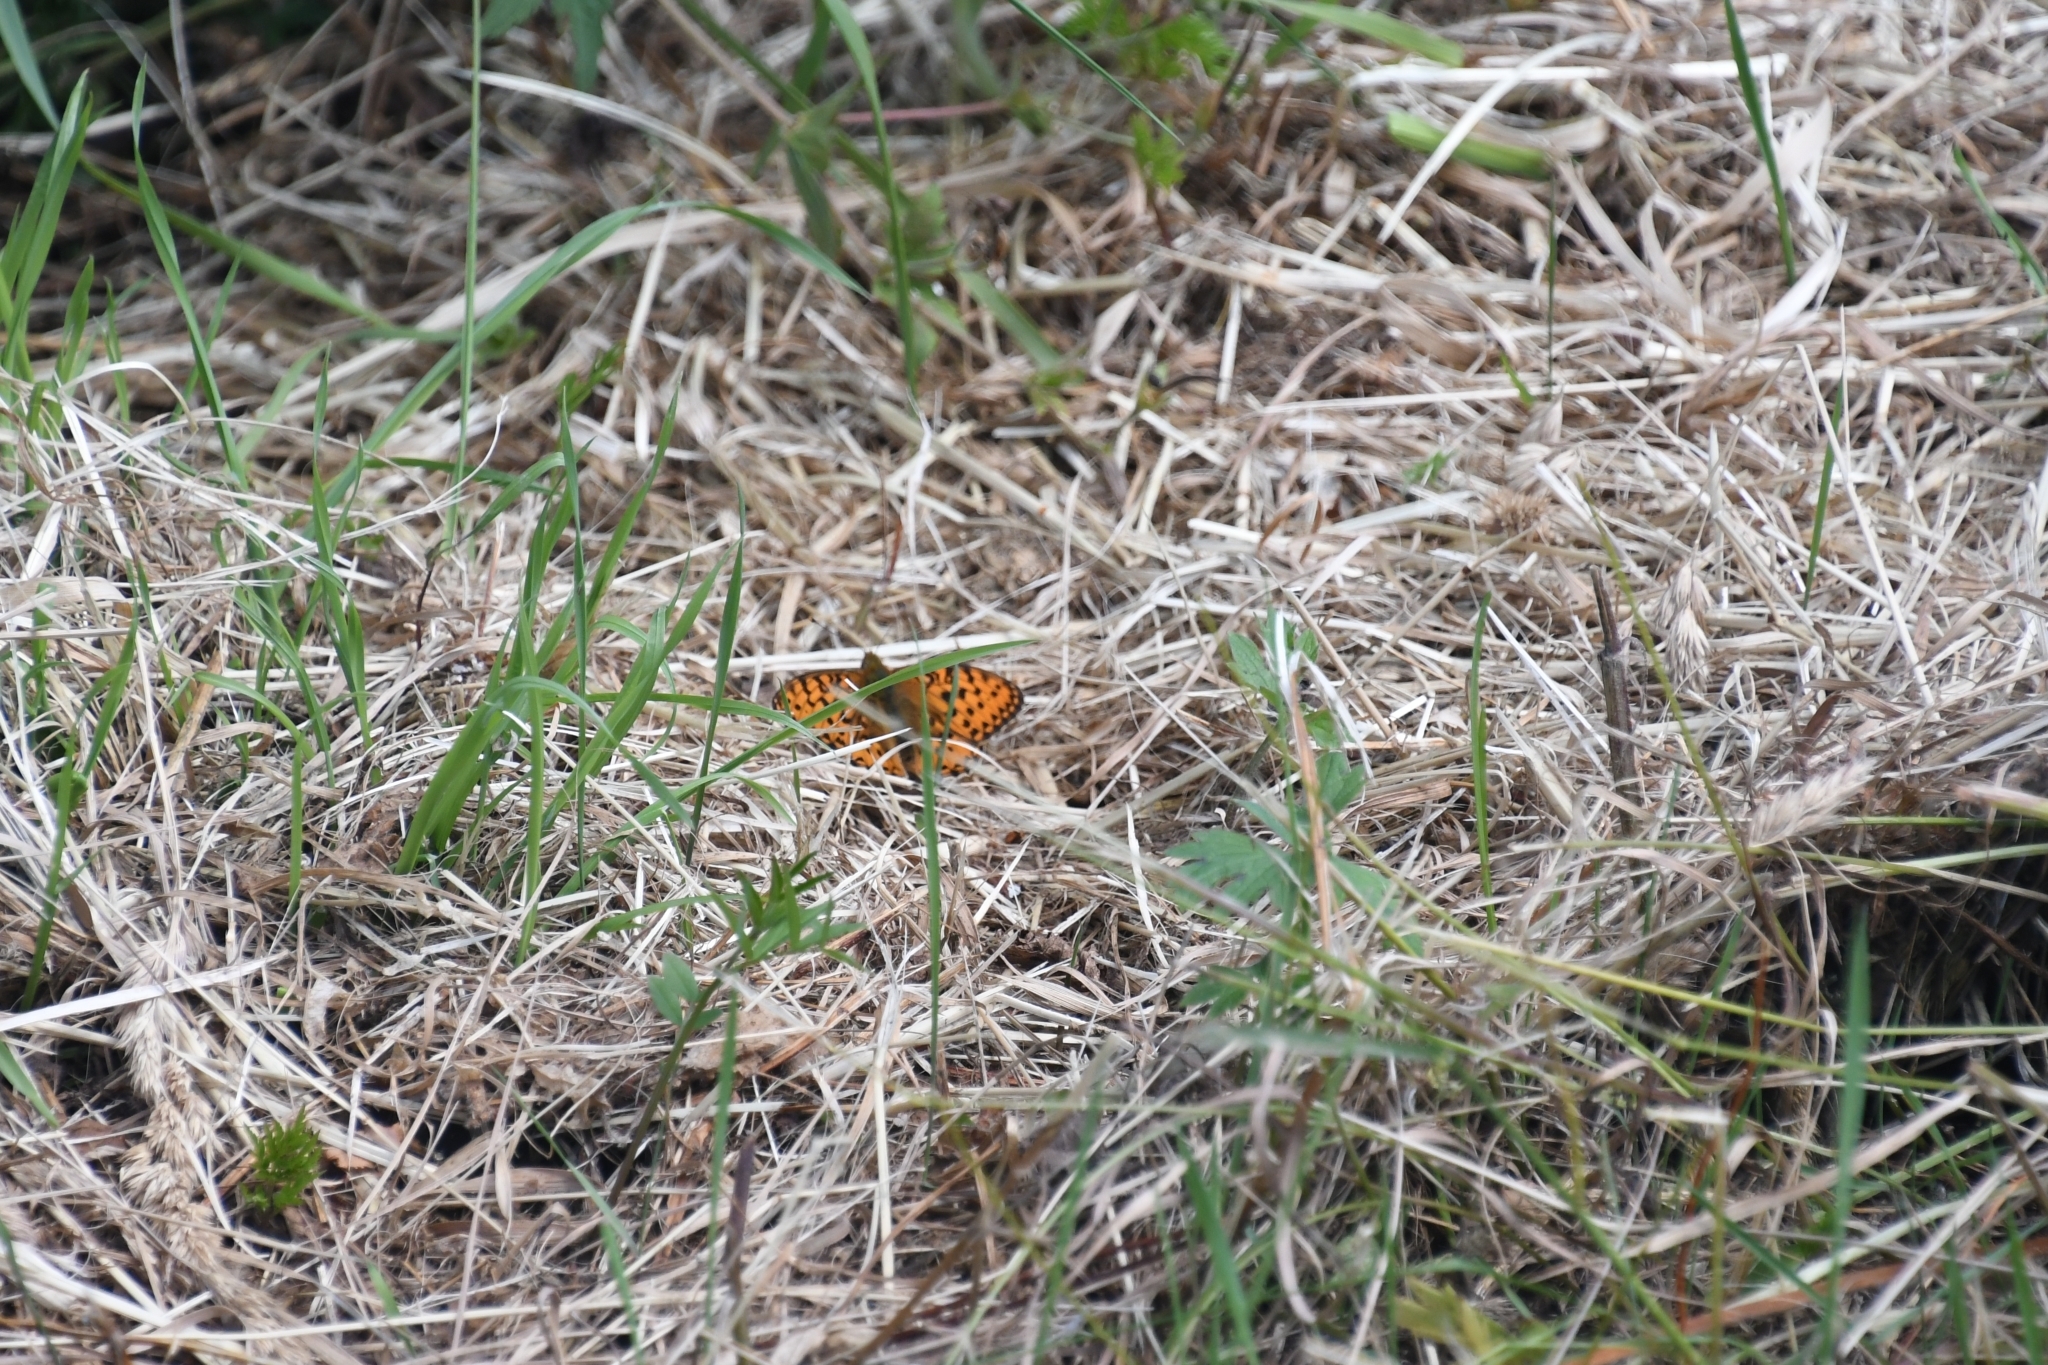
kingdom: Animalia
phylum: Arthropoda
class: Insecta
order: Lepidoptera
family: Nymphalidae
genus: Speyeria
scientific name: Speyeria aglaja
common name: Dark green fritillary
